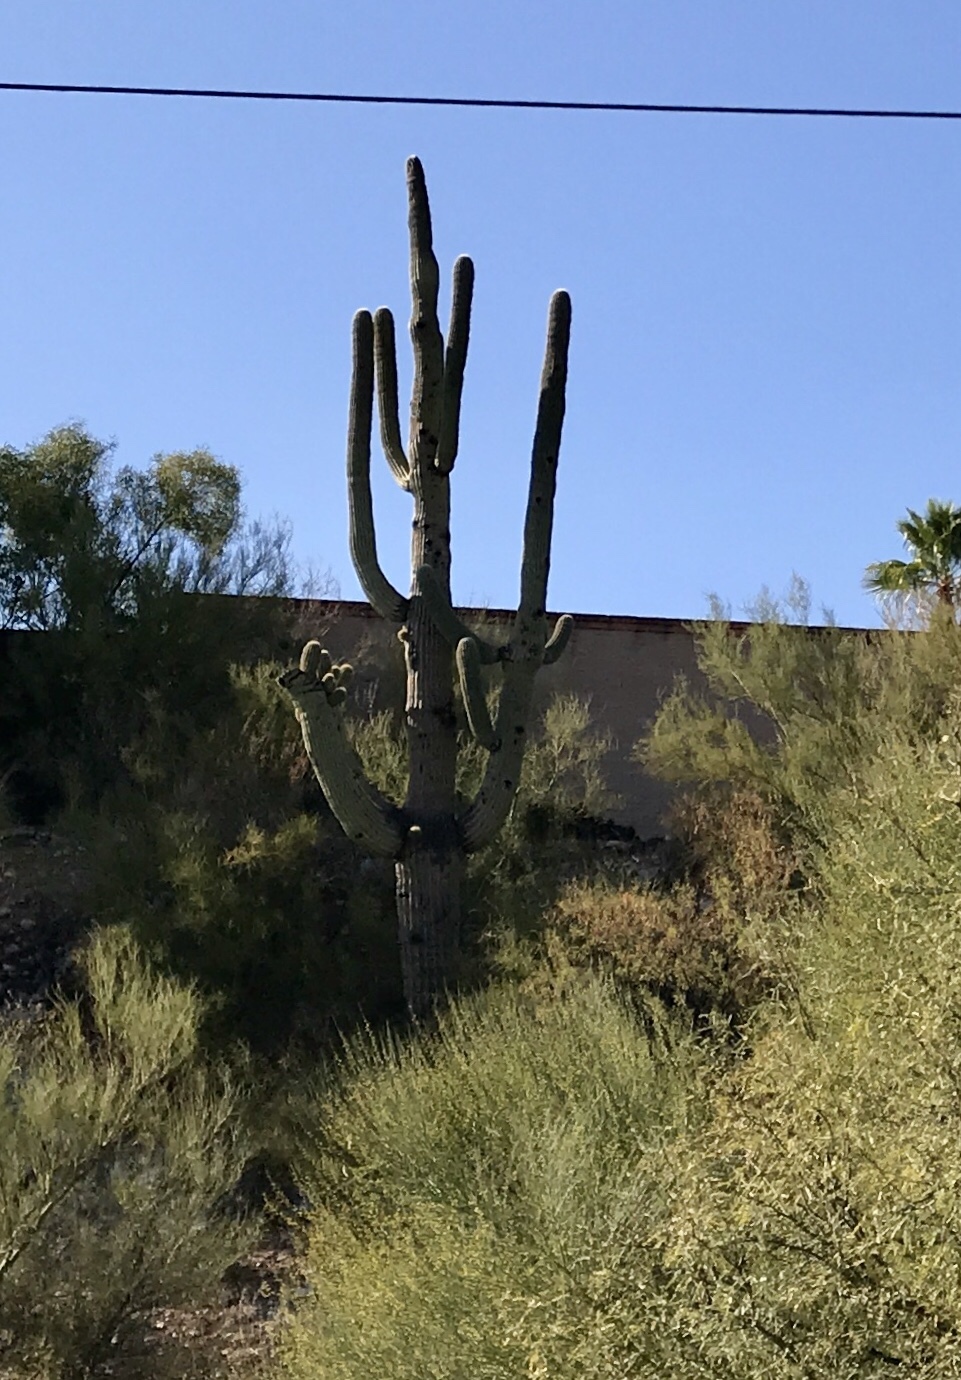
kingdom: Plantae
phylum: Tracheophyta
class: Magnoliopsida
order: Caryophyllales
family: Cactaceae
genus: Carnegiea
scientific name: Carnegiea gigantea
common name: Saguaro
